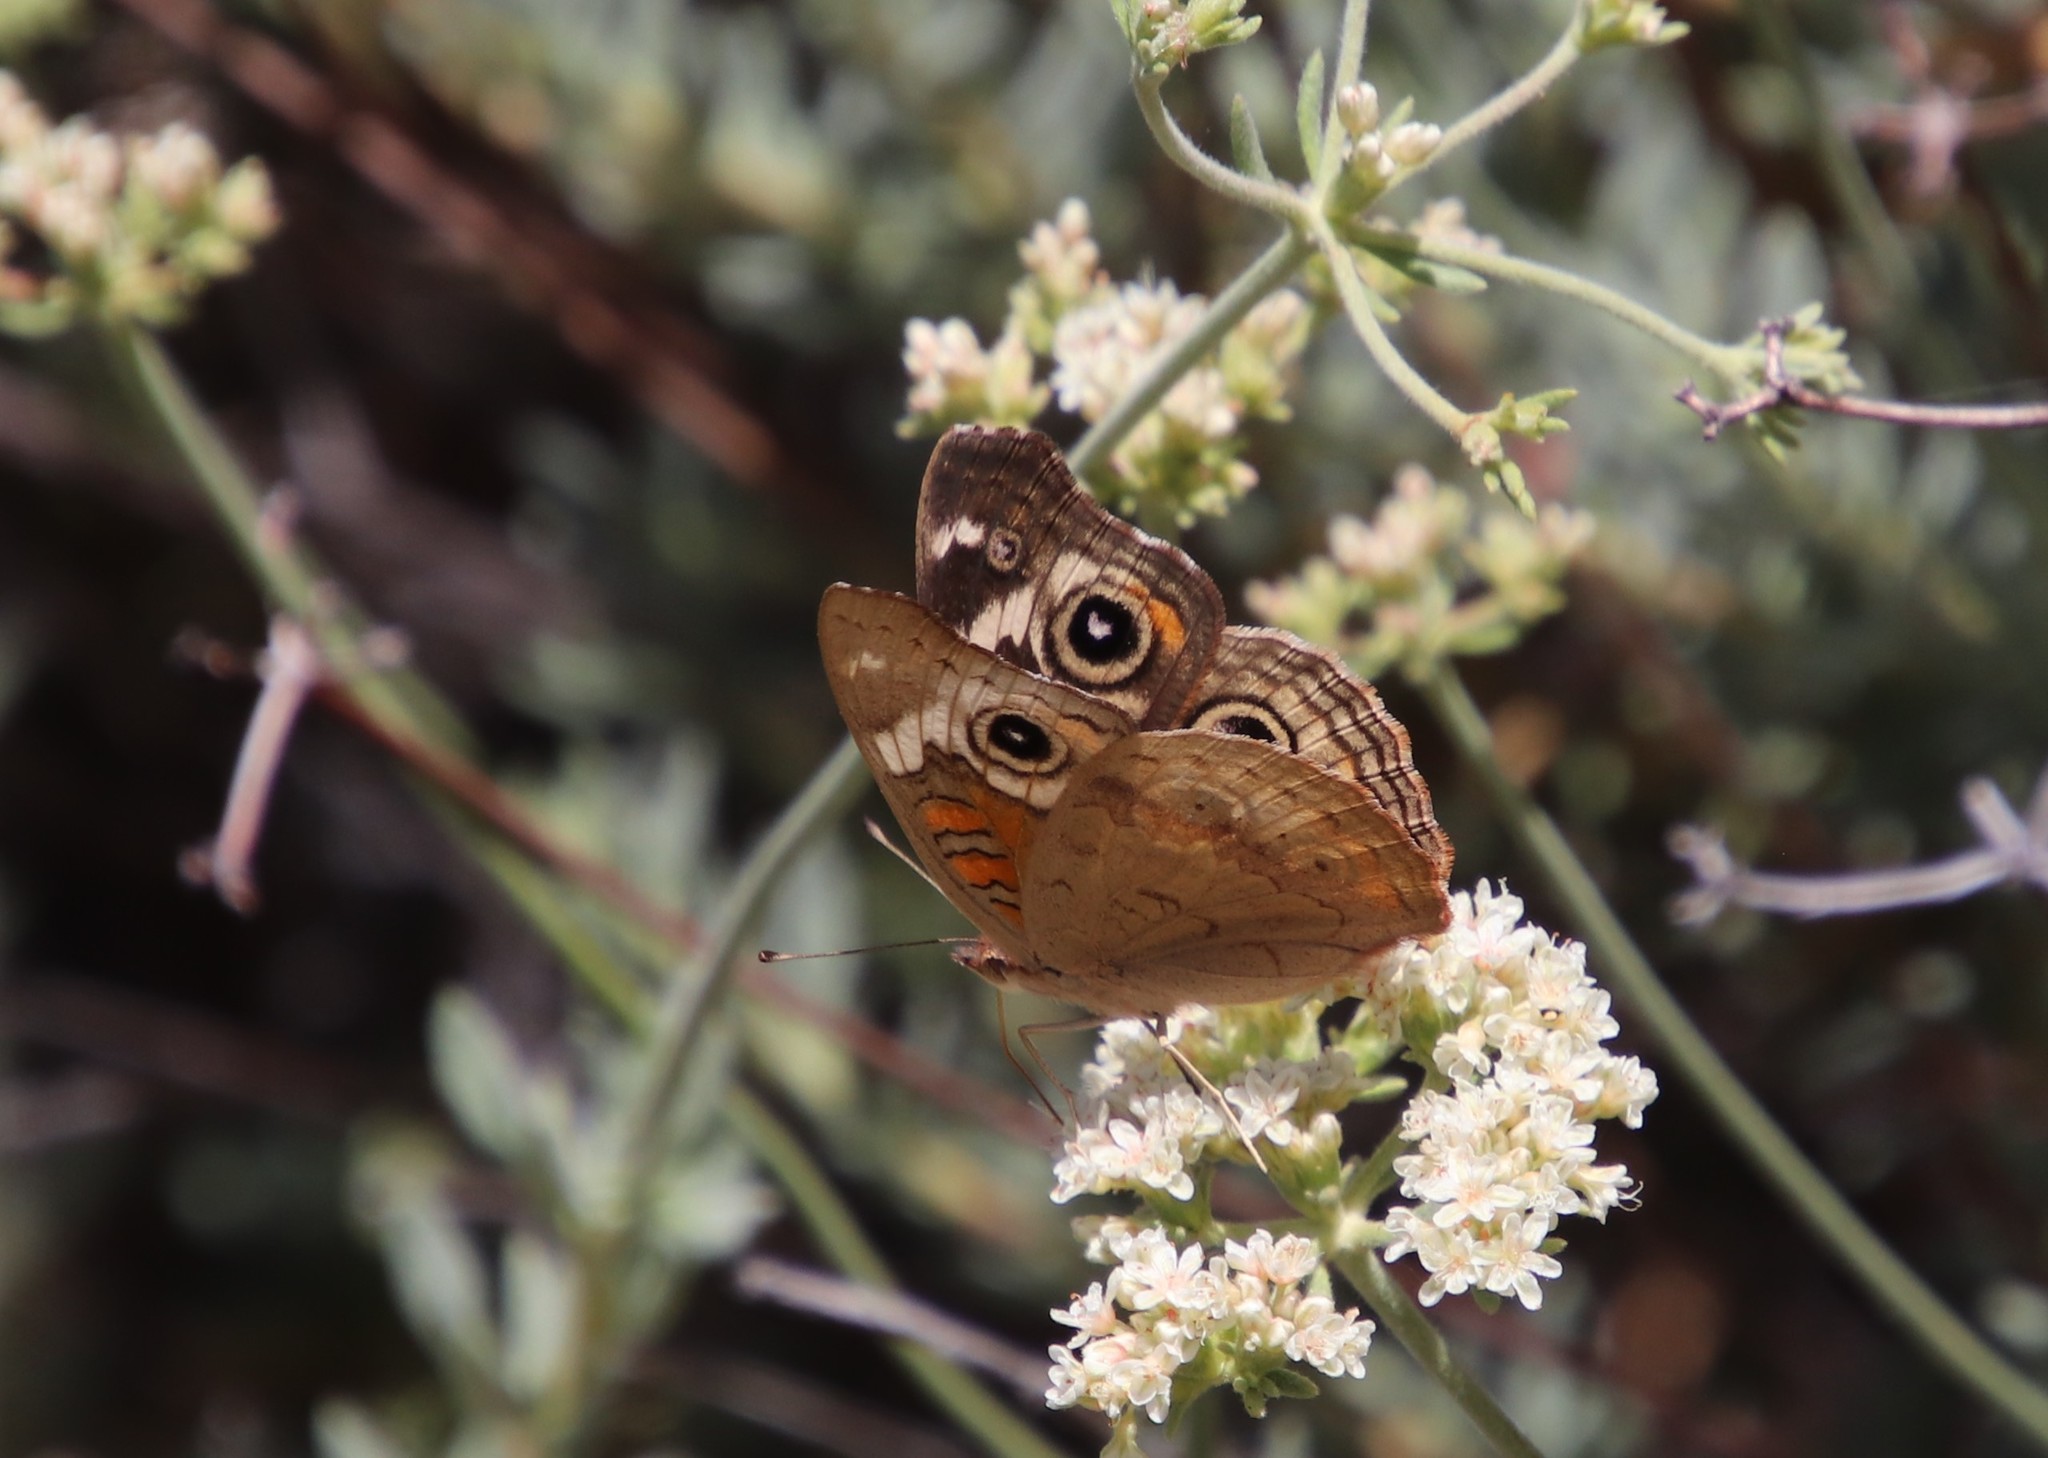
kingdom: Animalia
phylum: Arthropoda
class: Insecta
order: Lepidoptera
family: Nymphalidae
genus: Junonia
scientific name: Junonia grisea
